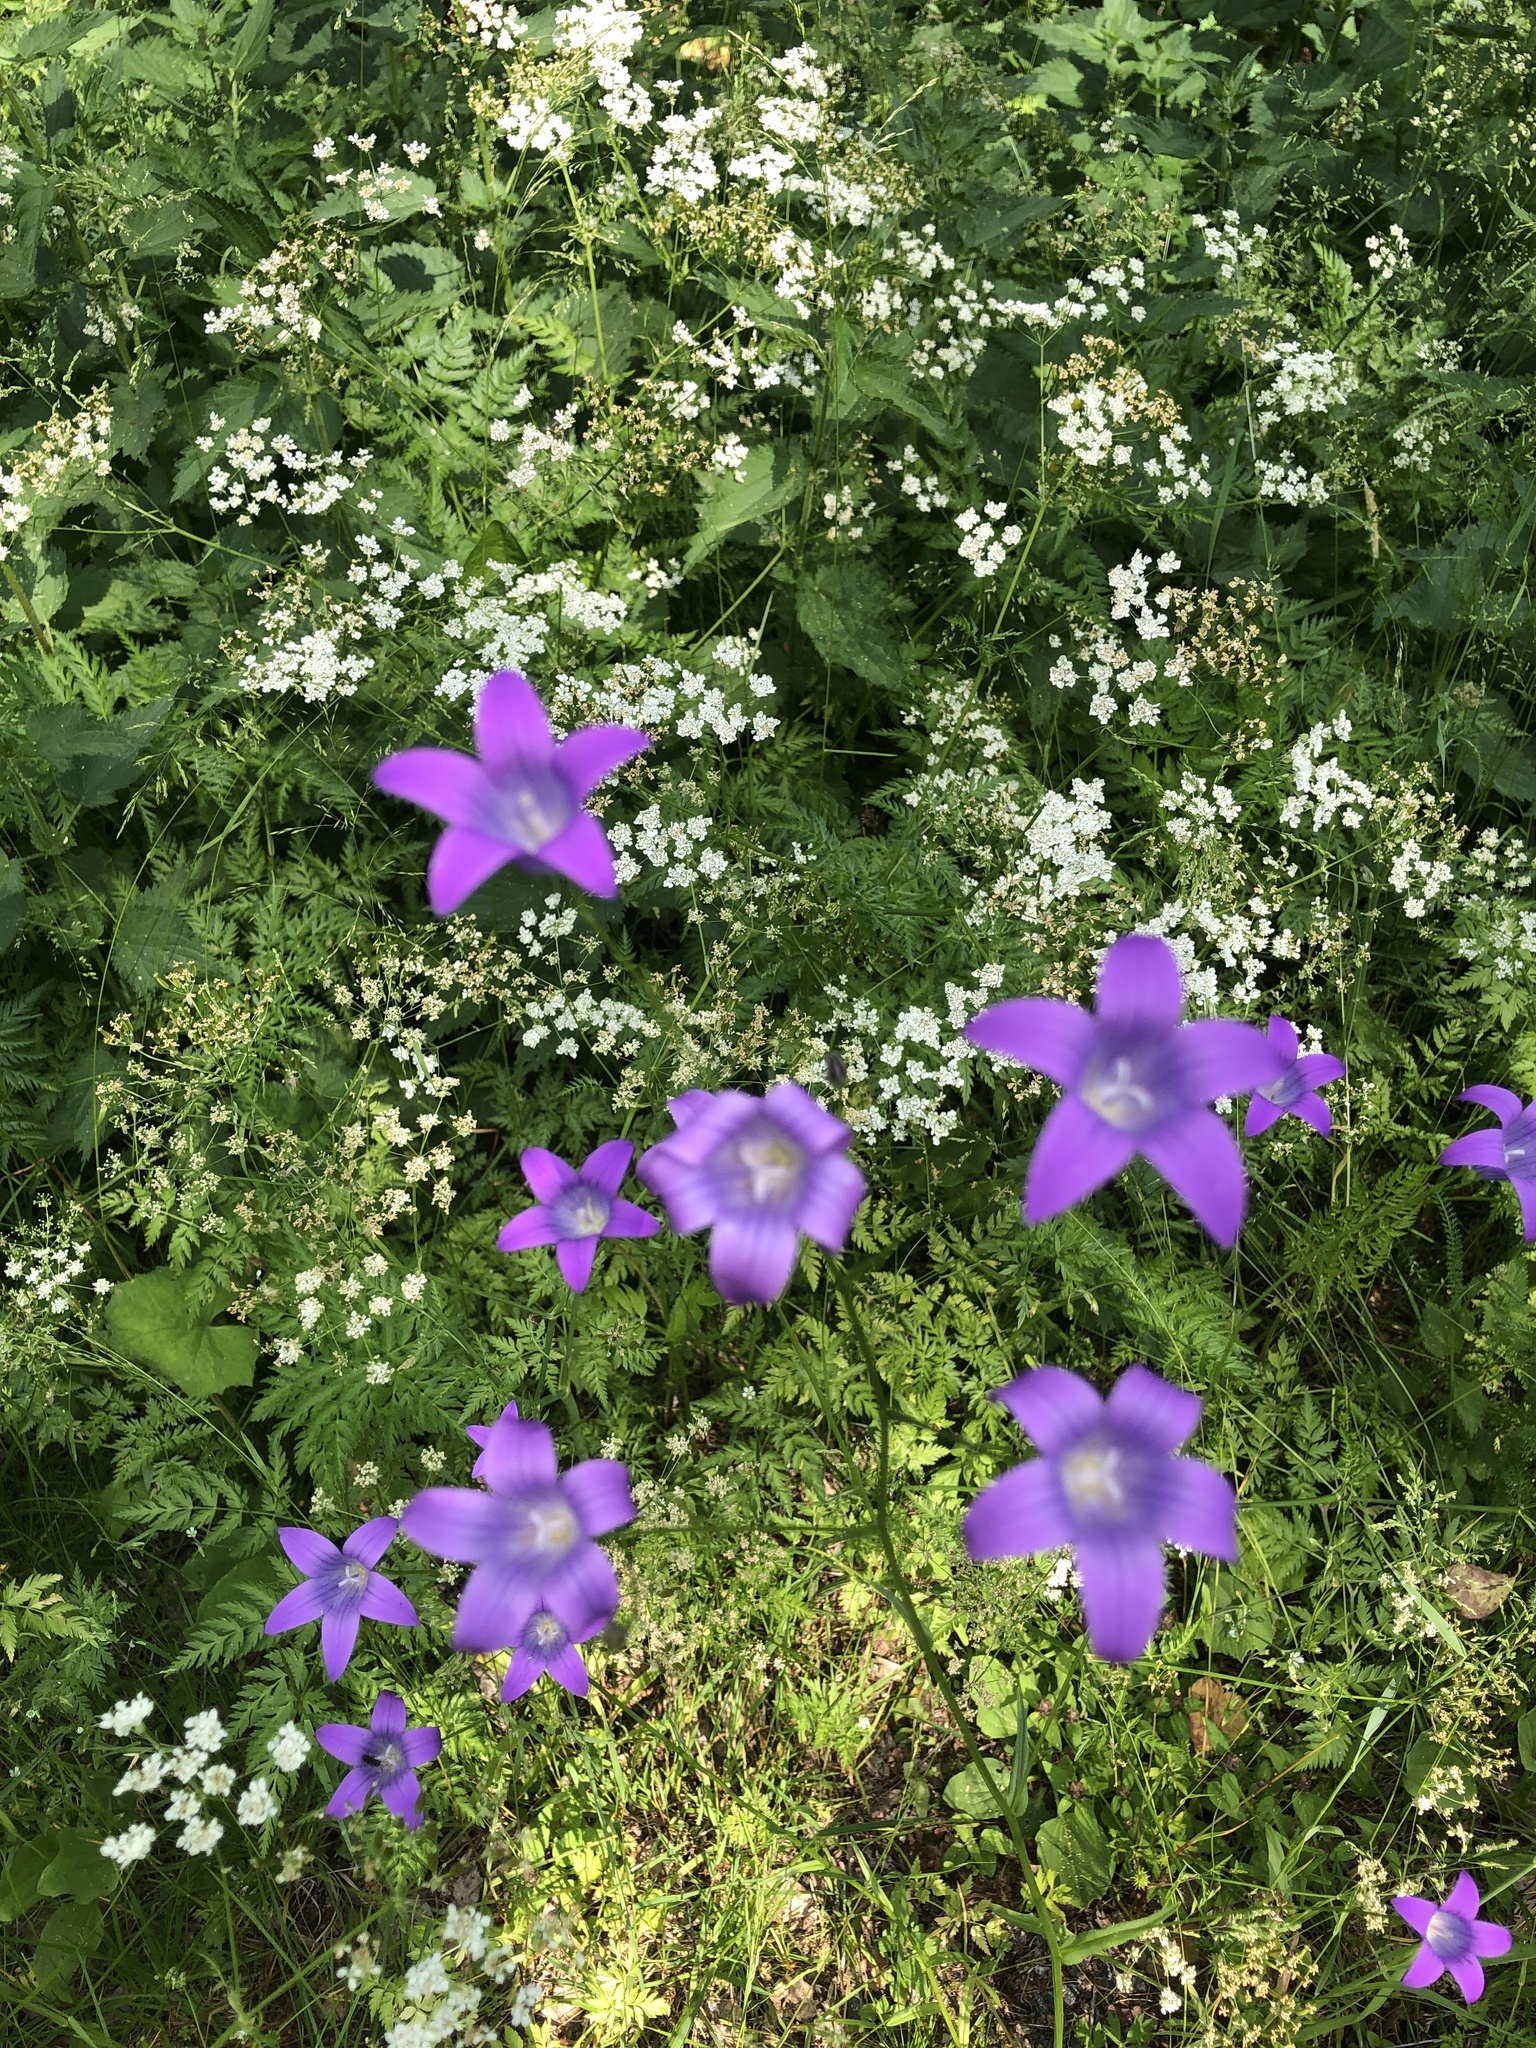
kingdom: Plantae
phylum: Tracheophyta
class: Magnoliopsida
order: Asterales
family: Campanulaceae
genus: Campanula
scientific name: Campanula patula
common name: Spreading bellflower
